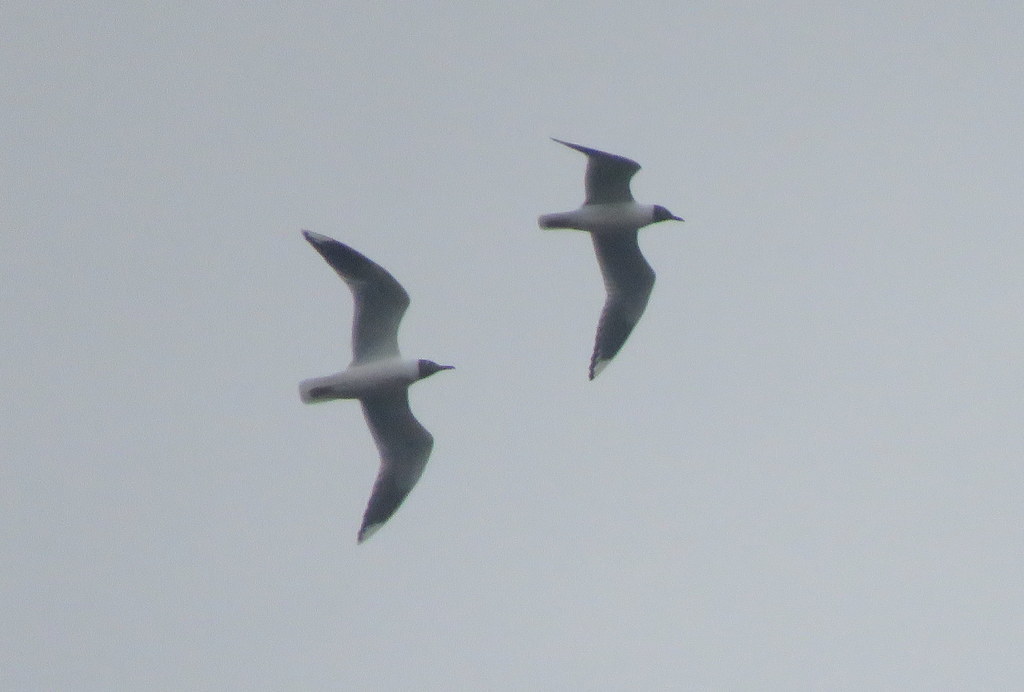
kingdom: Animalia
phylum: Chordata
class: Aves
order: Charadriiformes
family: Laridae
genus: Chroicocephalus
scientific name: Chroicocephalus maculipennis
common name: Brown-hooded gull
